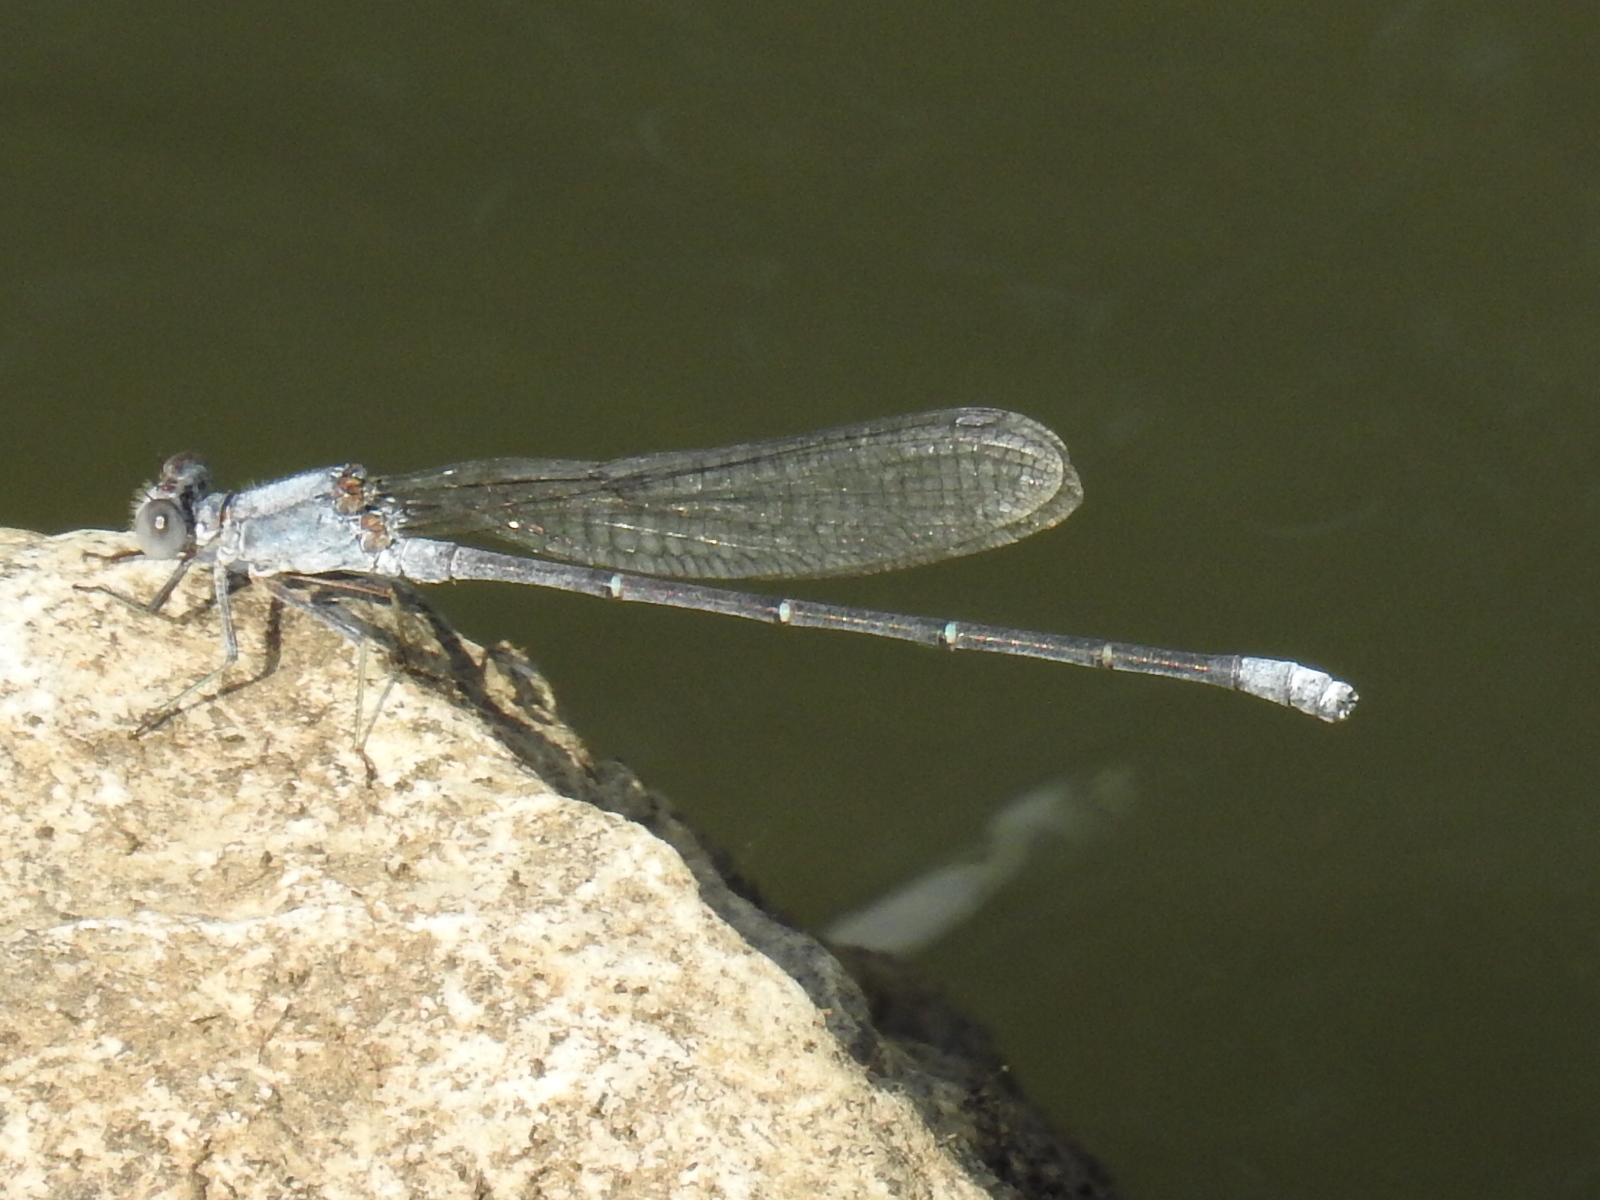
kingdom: Animalia
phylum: Arthropoda
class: Insecta
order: Odonata
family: Coenagrionidae
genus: Argia
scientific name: Argia moesta
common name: Powdered dancer
